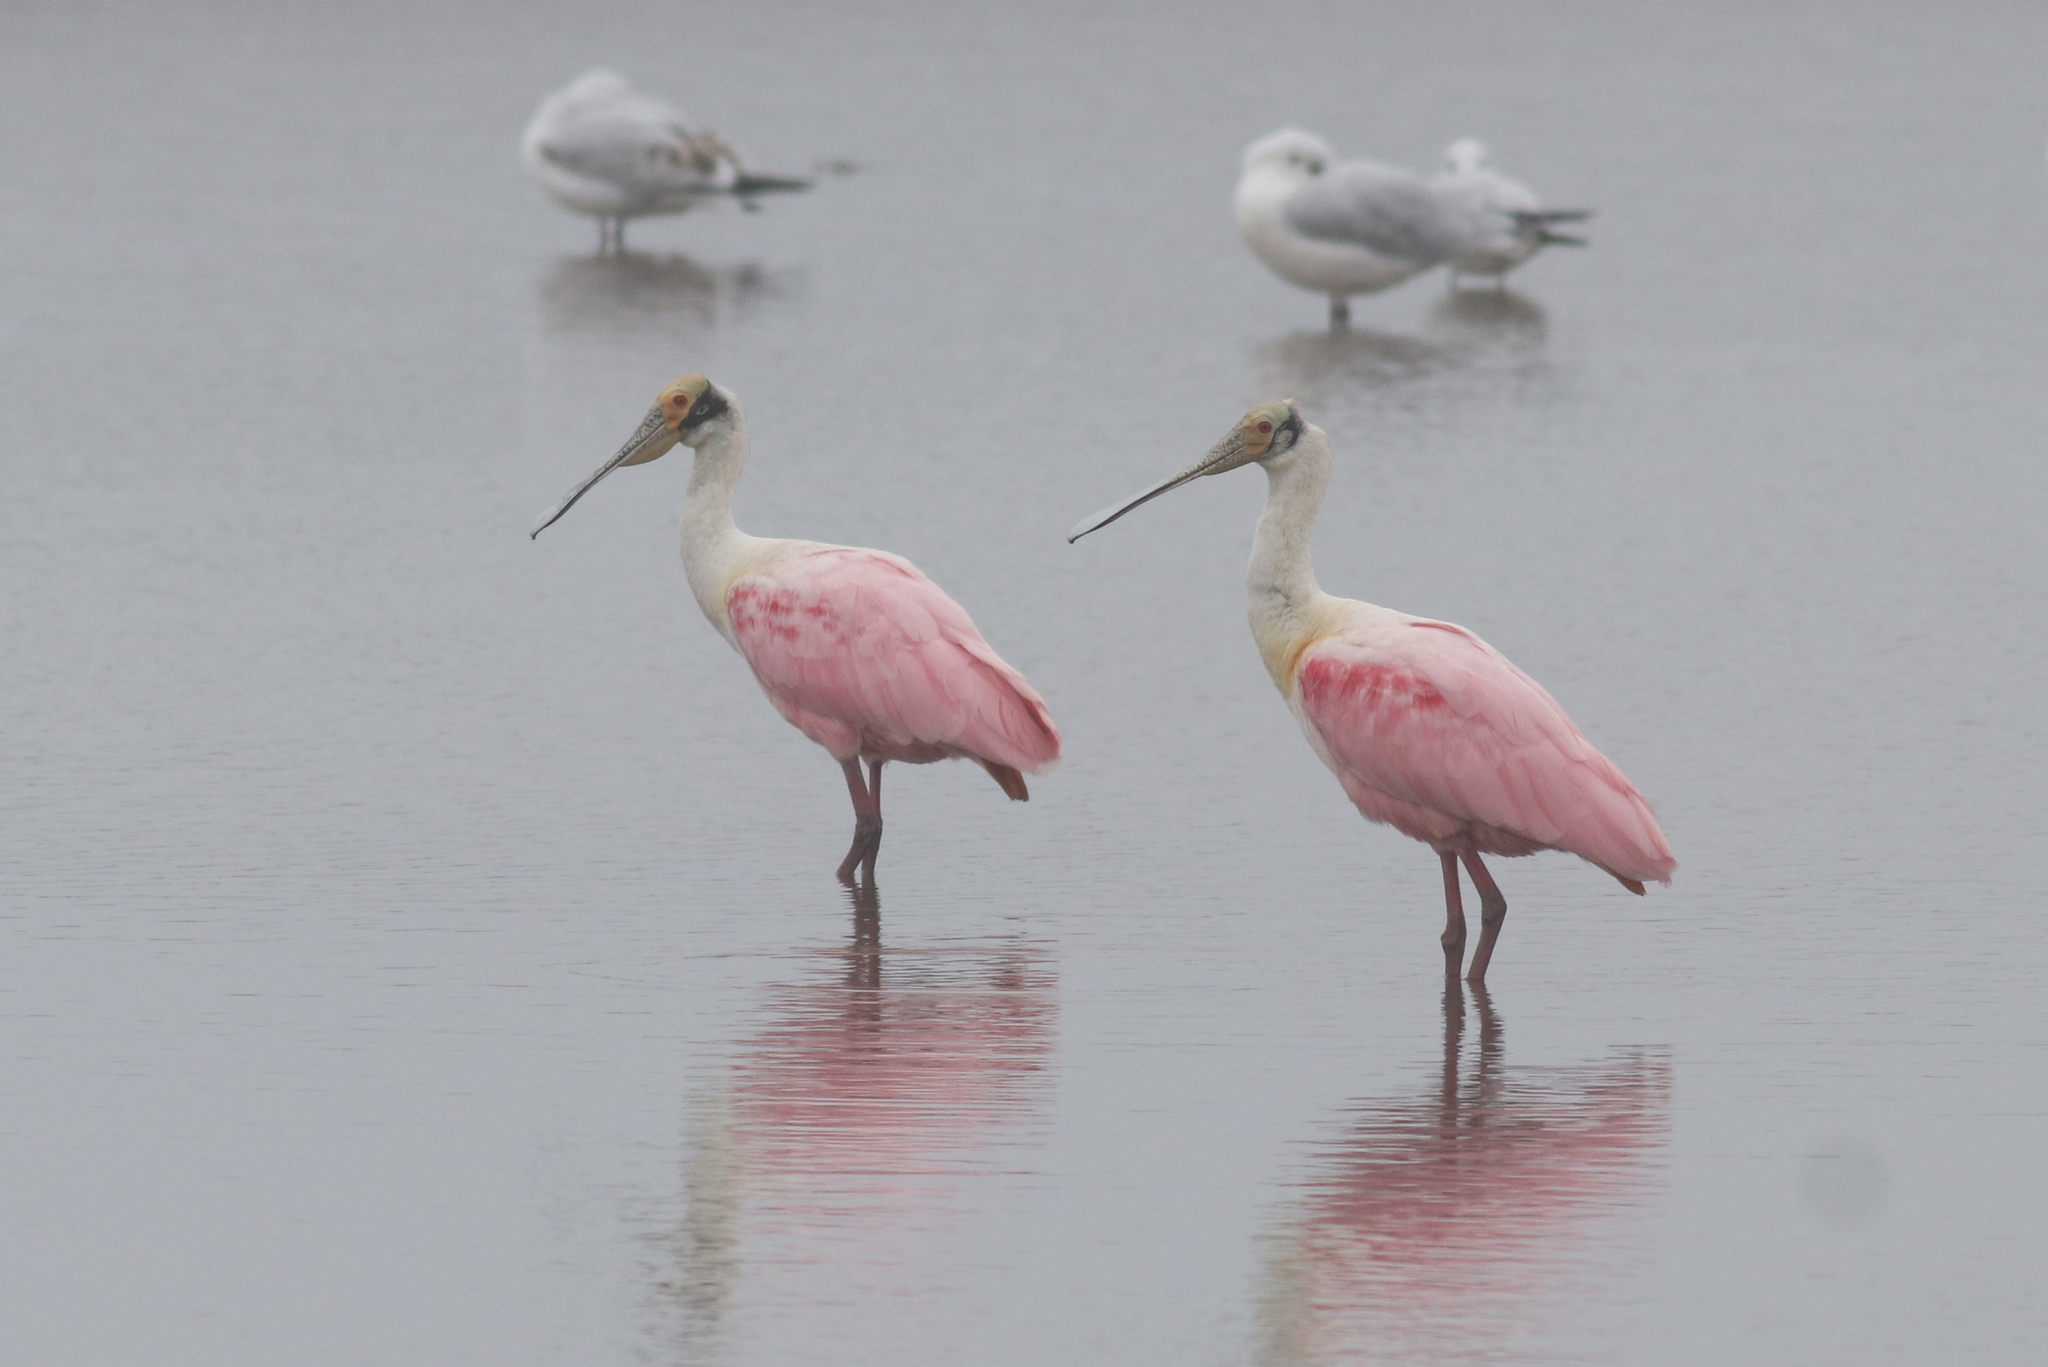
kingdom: Animalia
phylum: Chordata
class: Aves
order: Pelecaniformes
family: Threskiornithidae
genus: Platalea
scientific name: Platalea ajaja
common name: Roseate spoonbill
